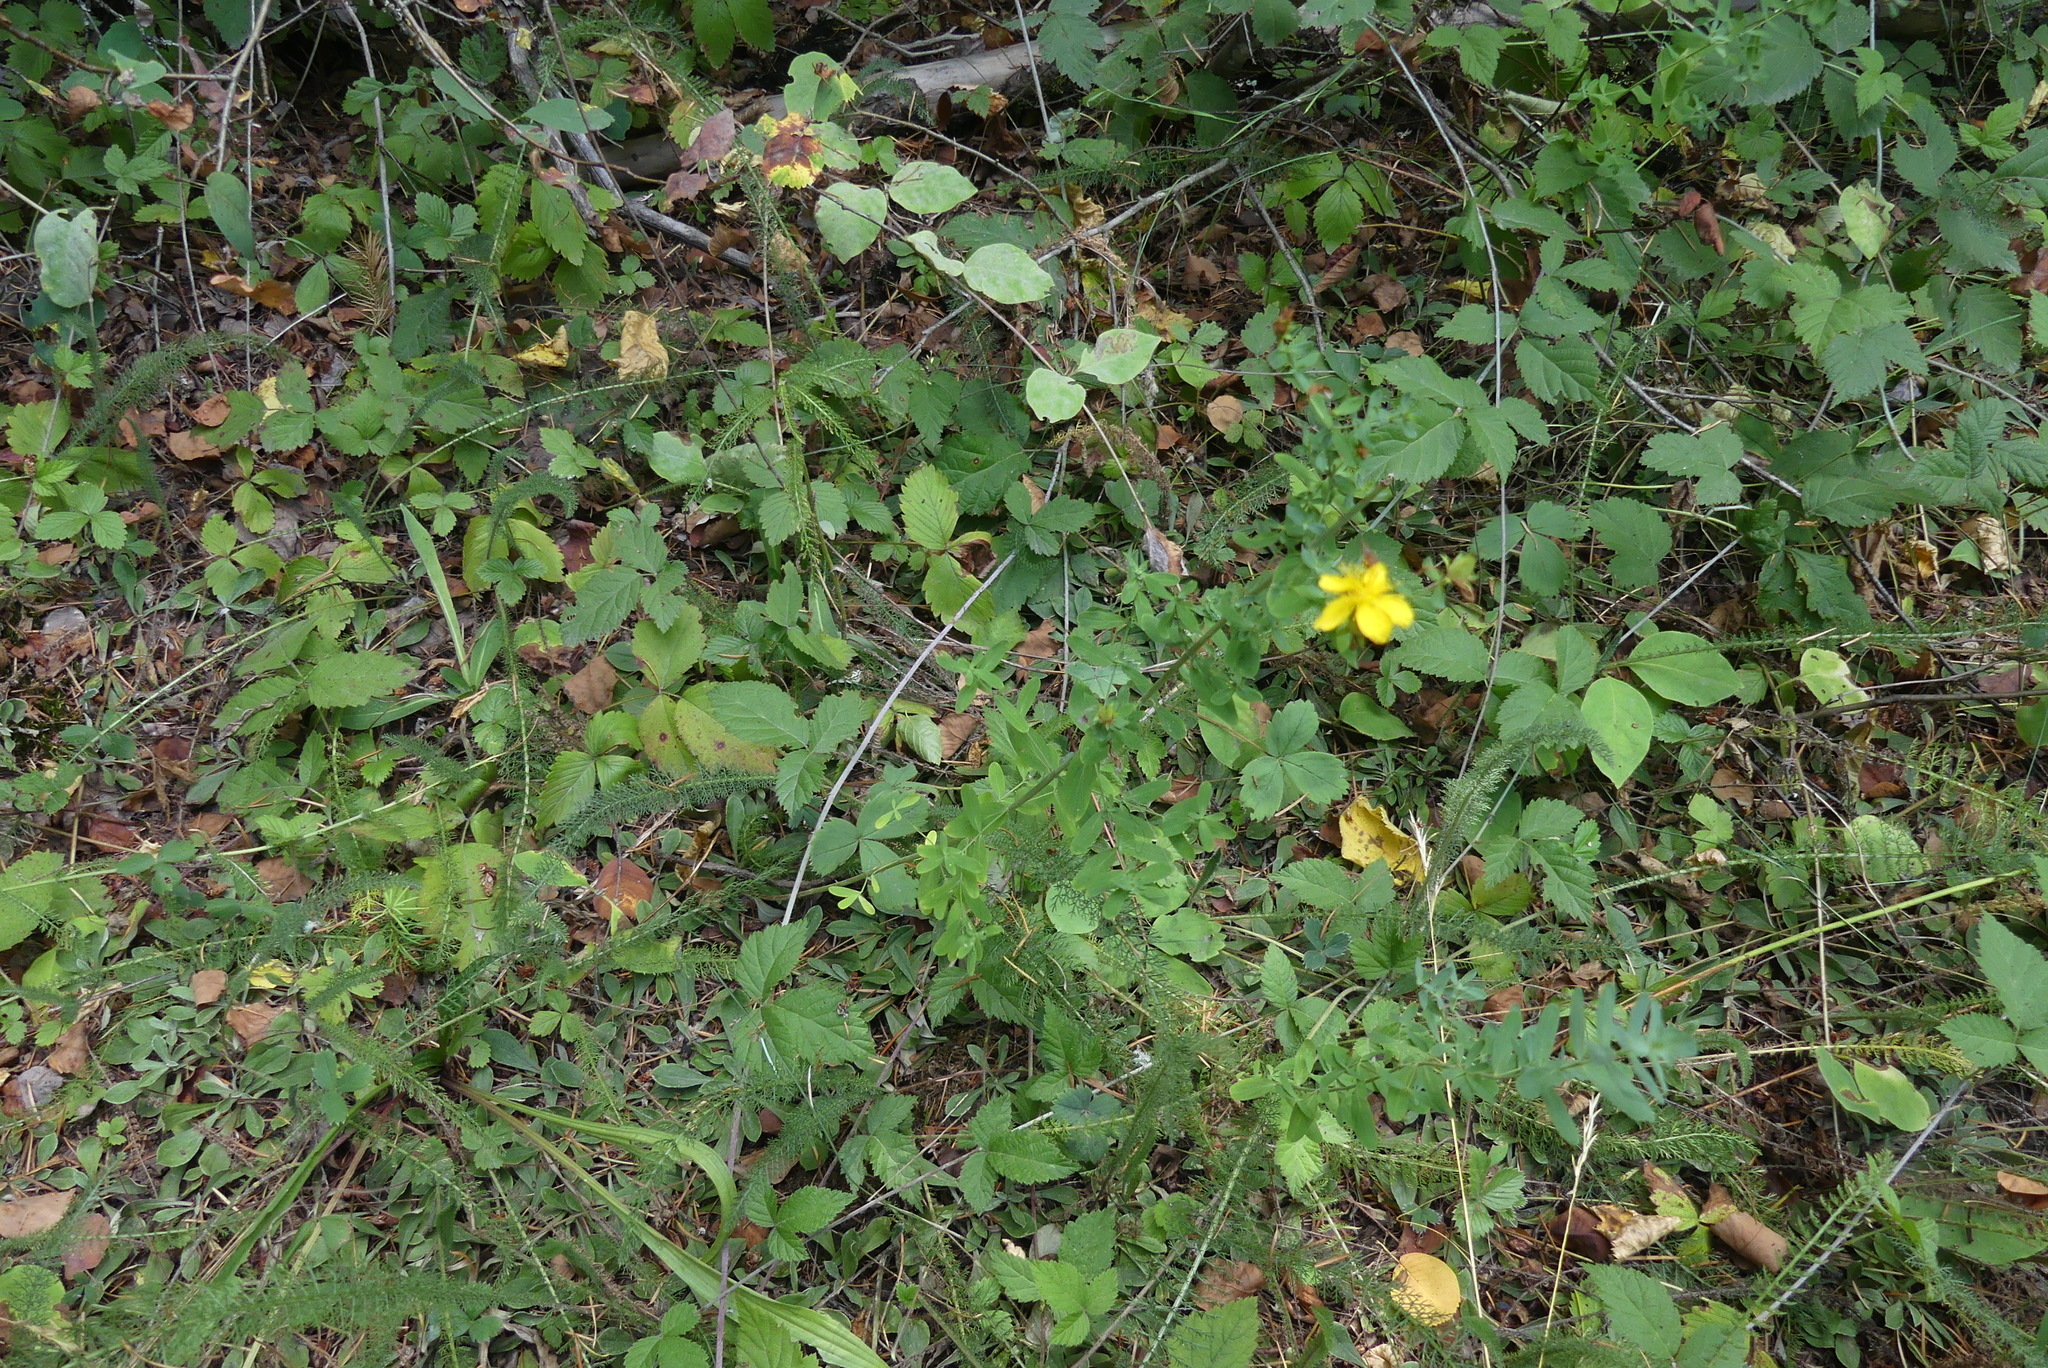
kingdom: Plantae
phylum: Tracheophyta
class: Magnoliopsida
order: Malpighiales
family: Hypericaceae
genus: Hypericum
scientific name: Hypericum perforatum
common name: Common st. johnswort
